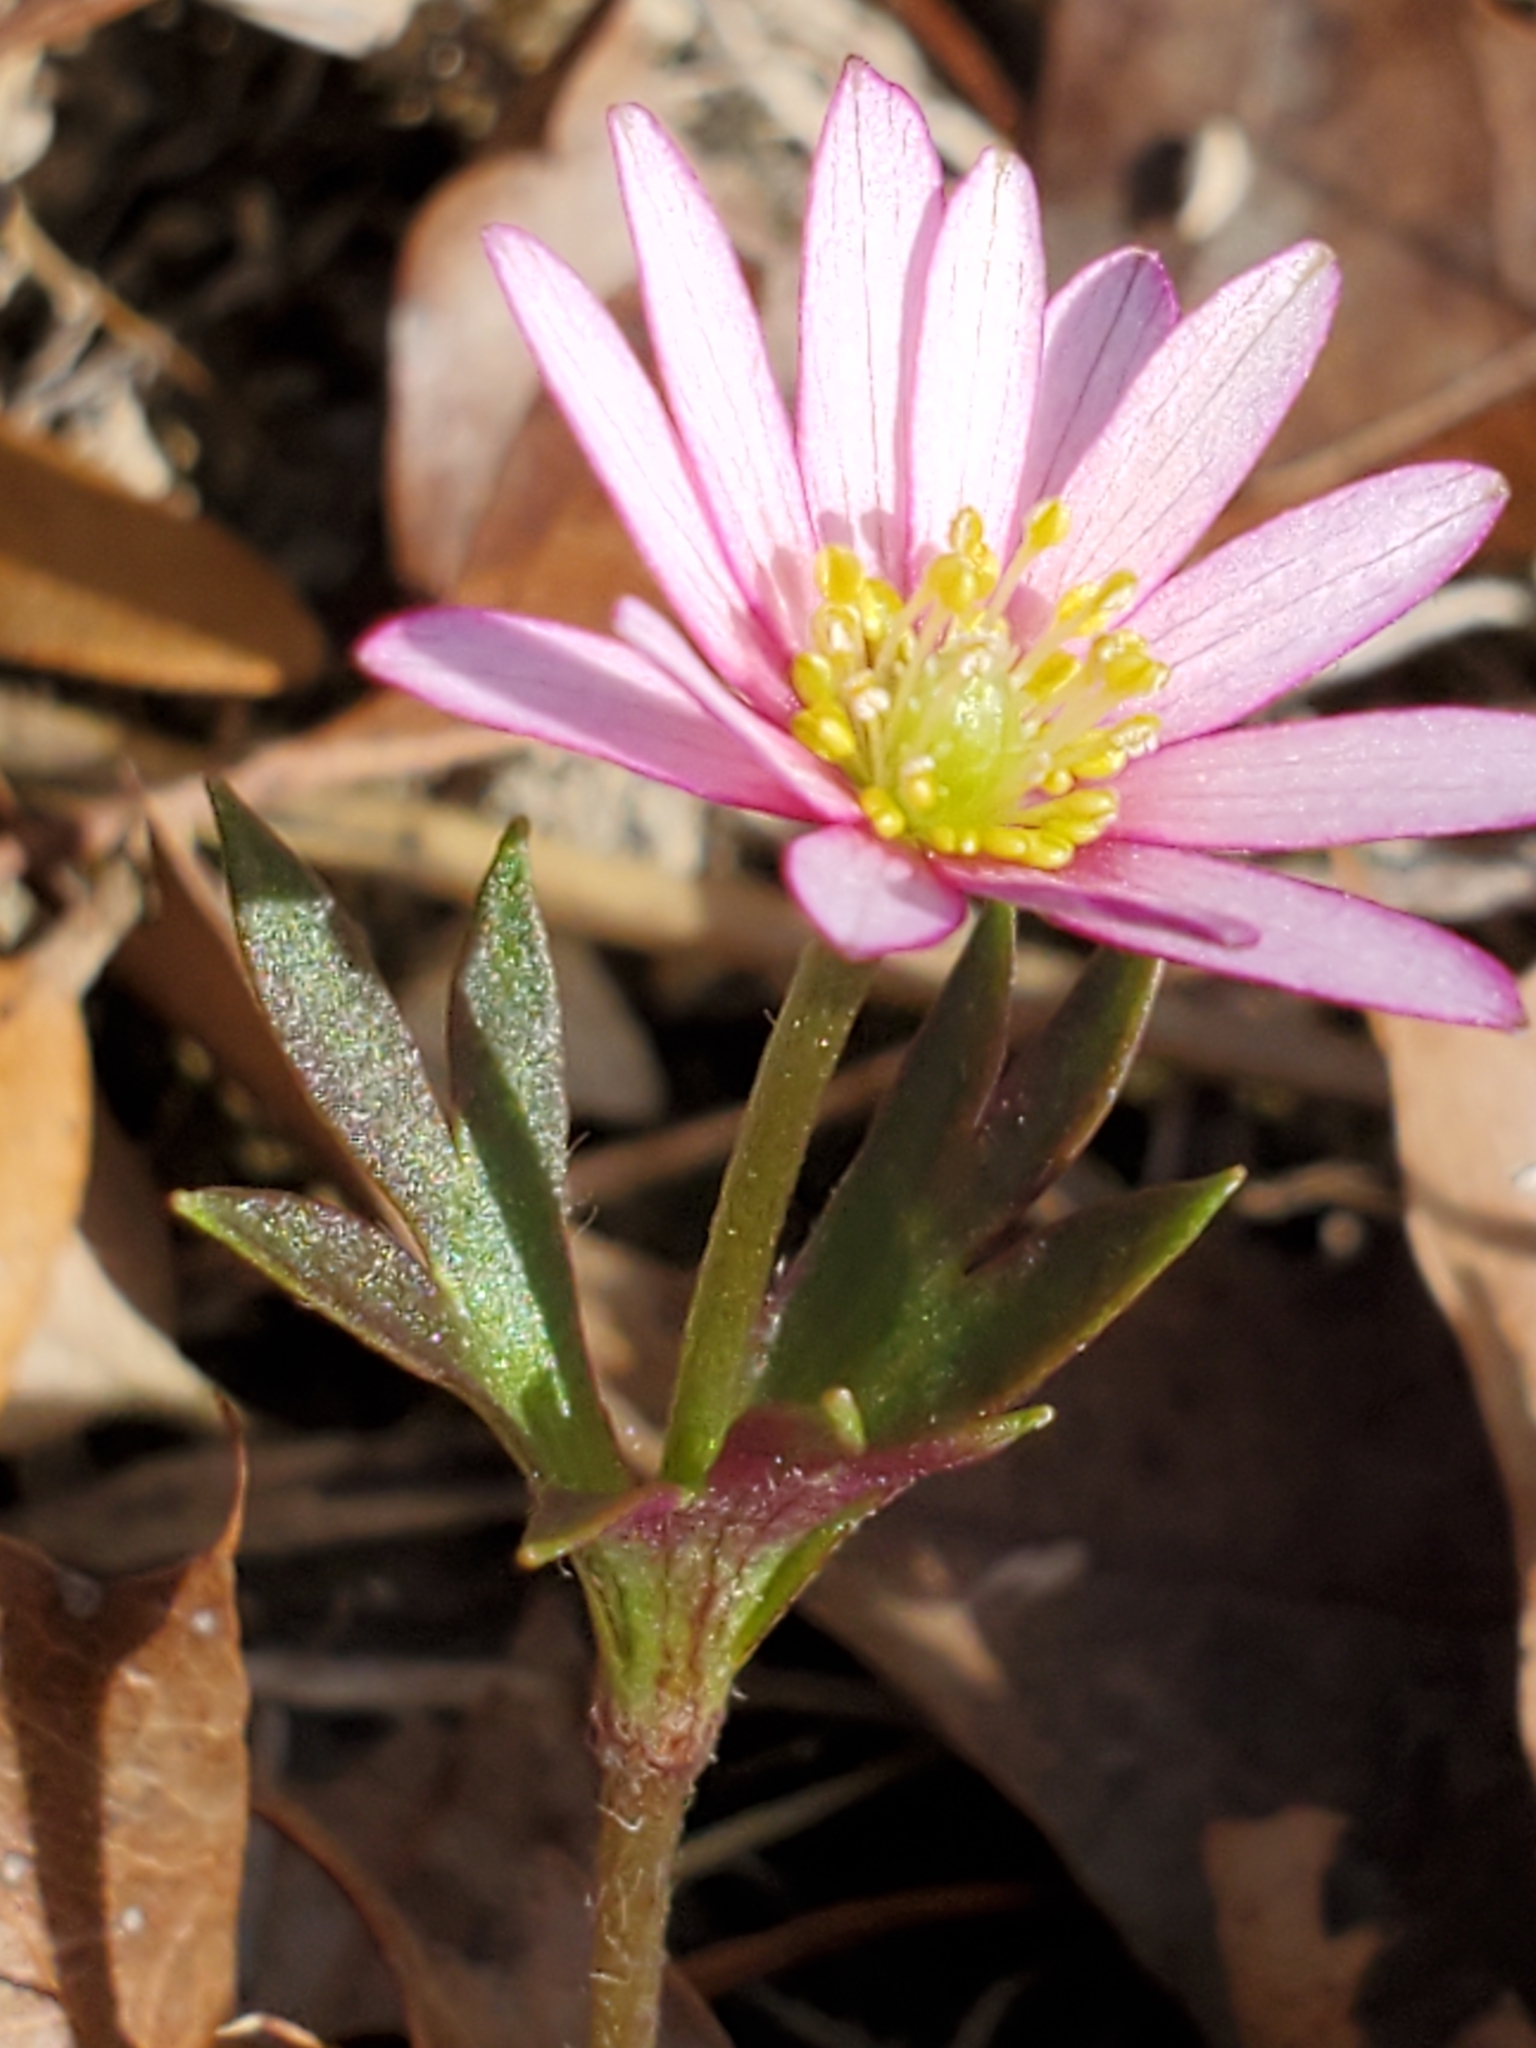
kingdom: Plantae
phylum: Tracheophyta
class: Magnoliopsida
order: Ranunculales
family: Ranunculaceae
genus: Anemone
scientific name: Anemone berlandieri
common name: Ten-petal anemone
